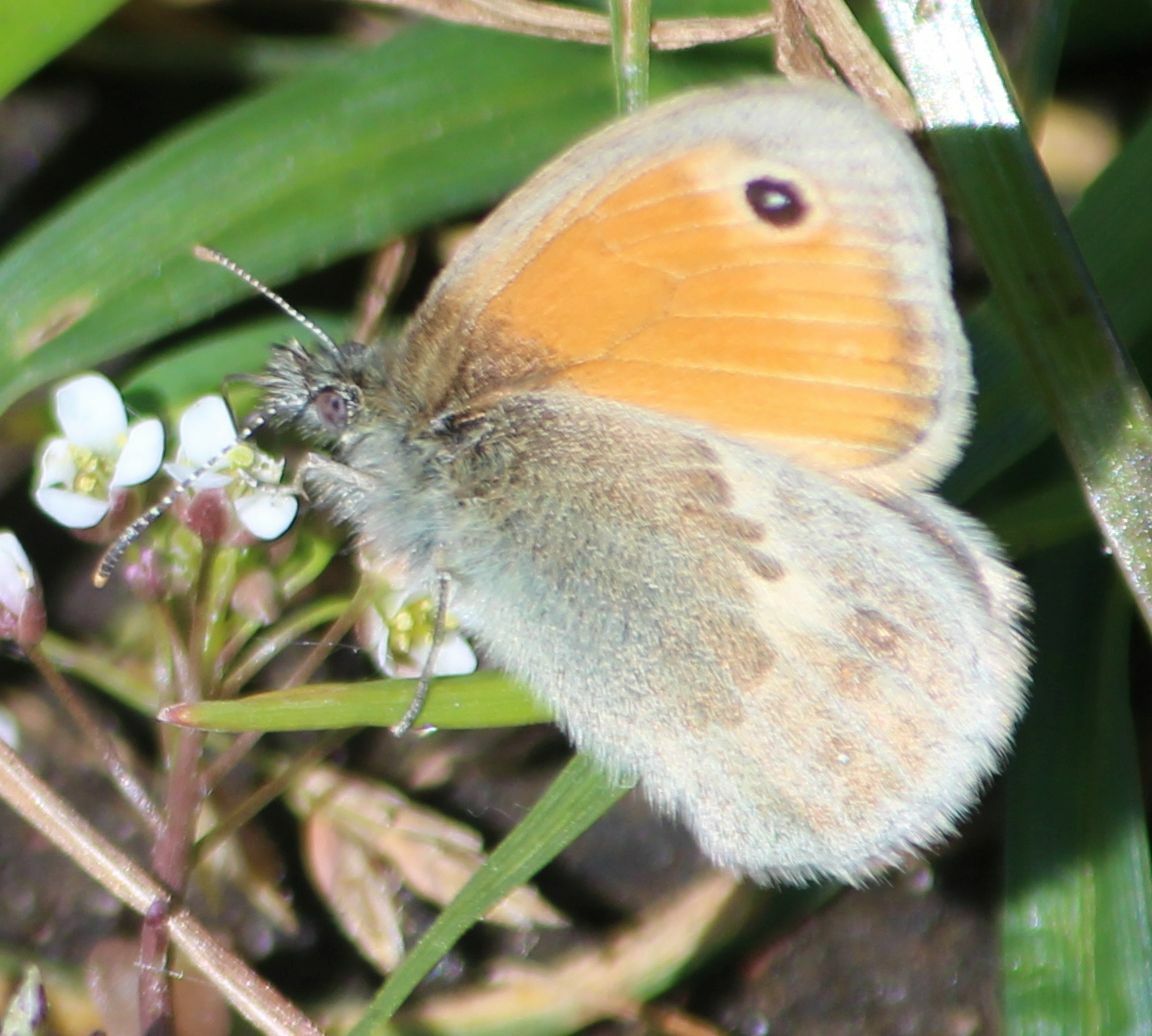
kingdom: Animalia
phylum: Arthropoda
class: Insecta
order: Lepidoptera
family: Nymphalidae
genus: Coenonympha
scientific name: Coenonympha pamphilus
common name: Small heath
